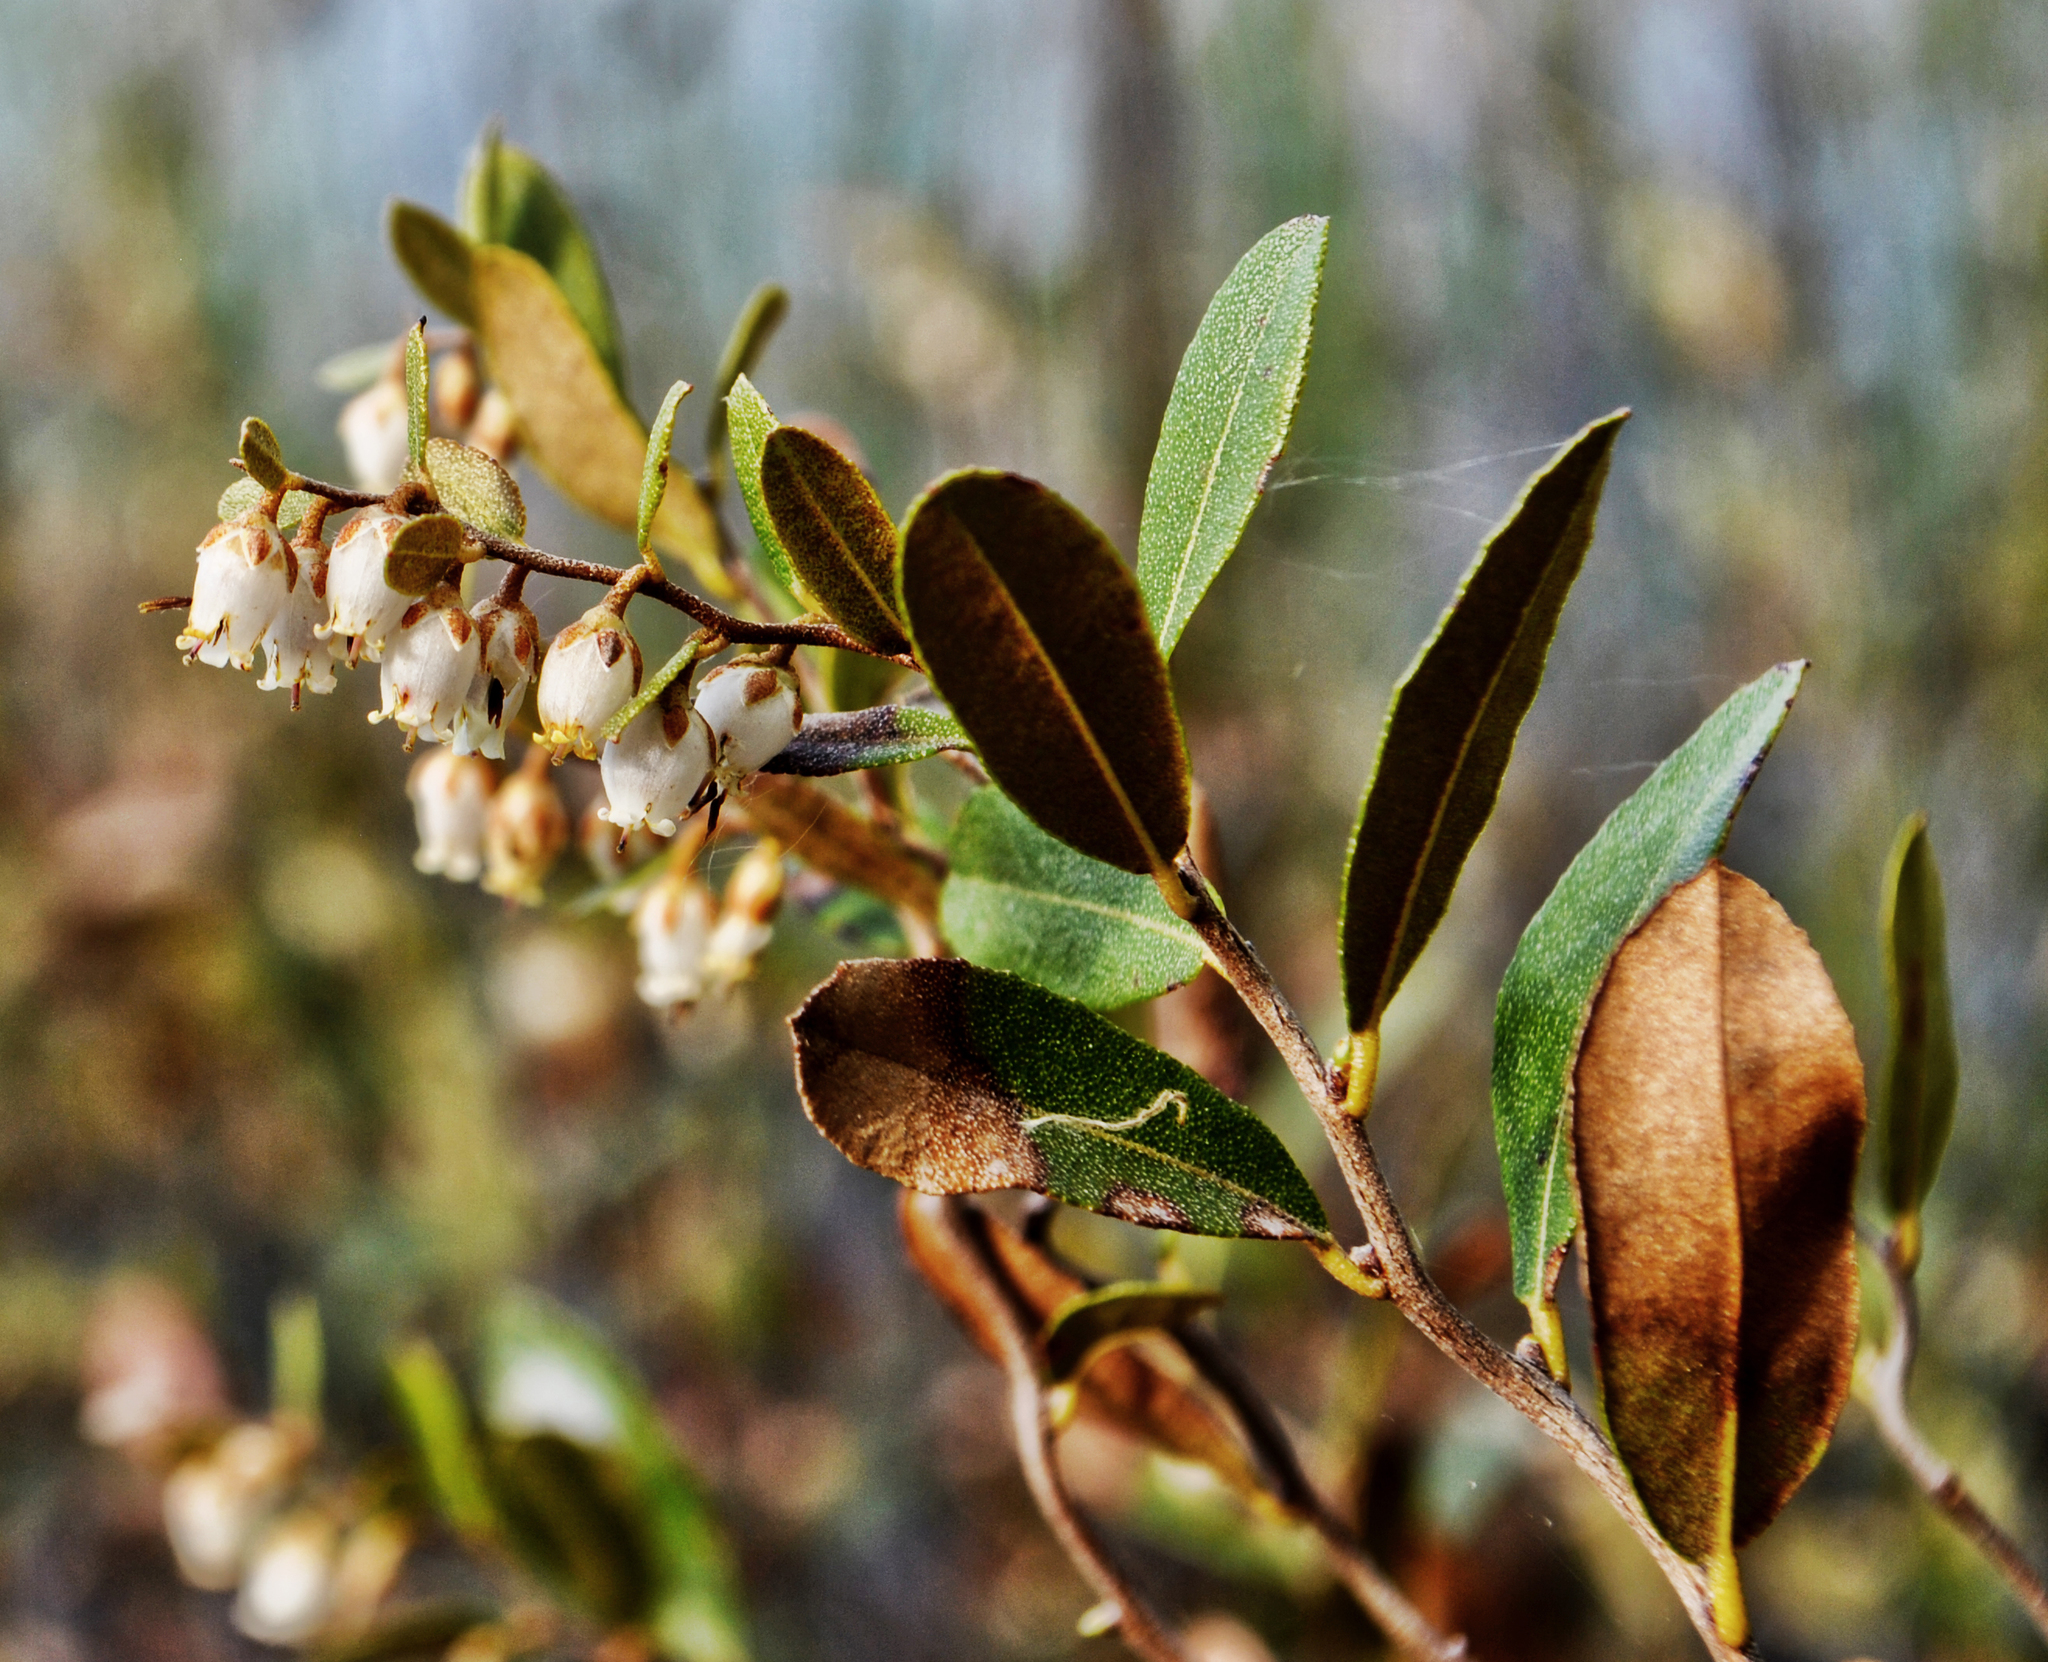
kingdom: Plantae
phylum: Tracheophyta
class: Magnoliopsida
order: Ericales
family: Ericaceae
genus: Chamaedaphne
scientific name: Chamaedaphne calyculata
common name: Leatherleaf
